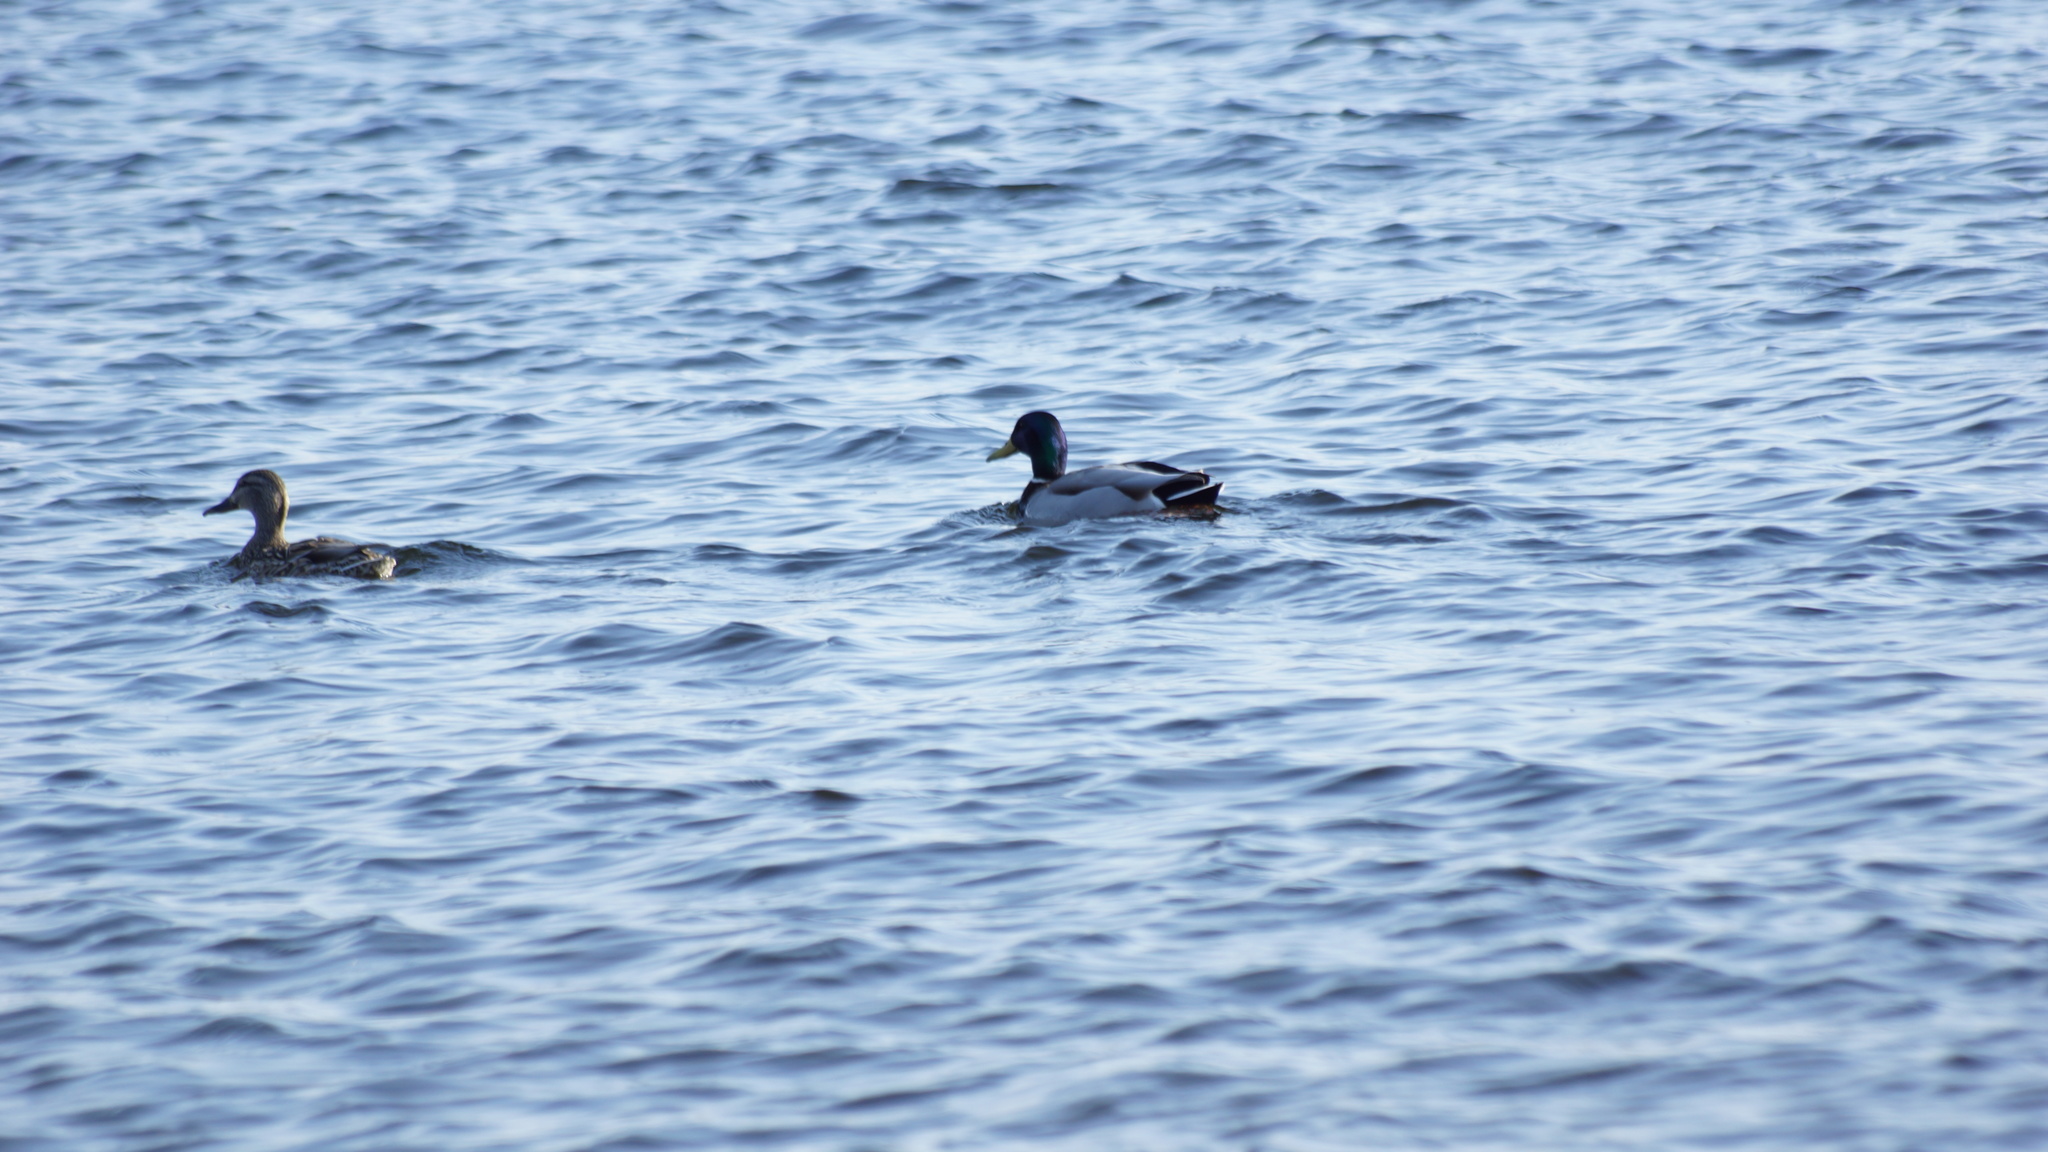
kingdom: Animalia
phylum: Chordata
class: Aves
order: Anseriformes
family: Anatidae
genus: Anas
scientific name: Anas platyrhynchos
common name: Mallard
